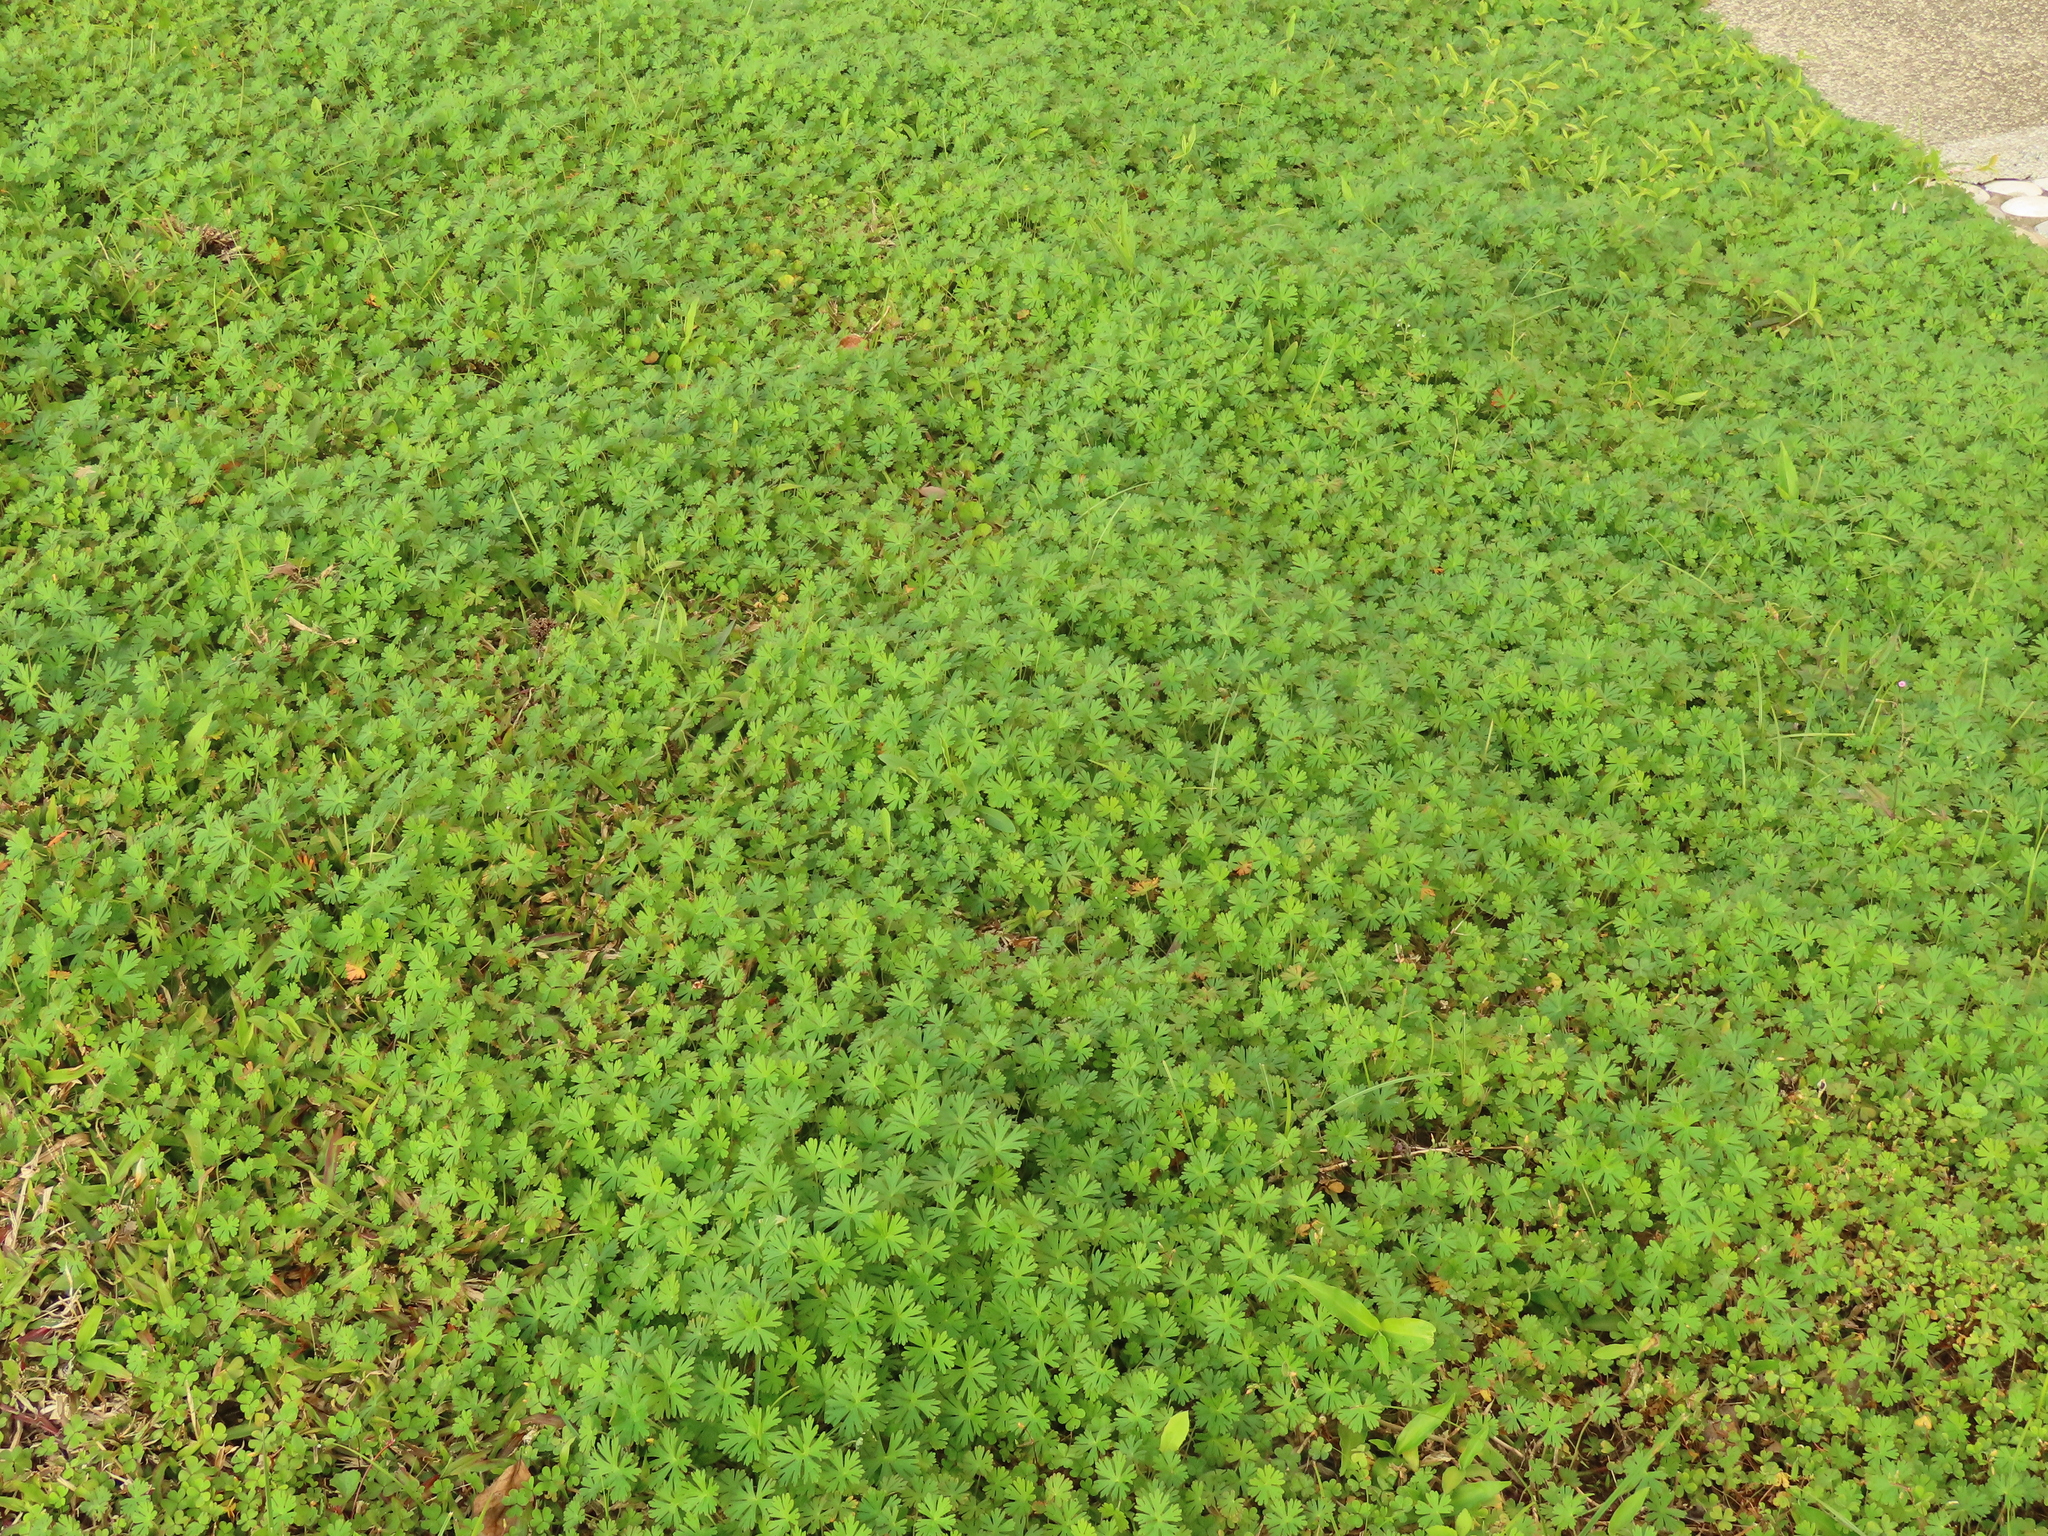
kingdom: Plantae
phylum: Tracheophyta
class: Magnoliopsida
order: Geraniales
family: Geraniaceae
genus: Geranium
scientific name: Geranium carolinianum
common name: Carolina crane's-bill
